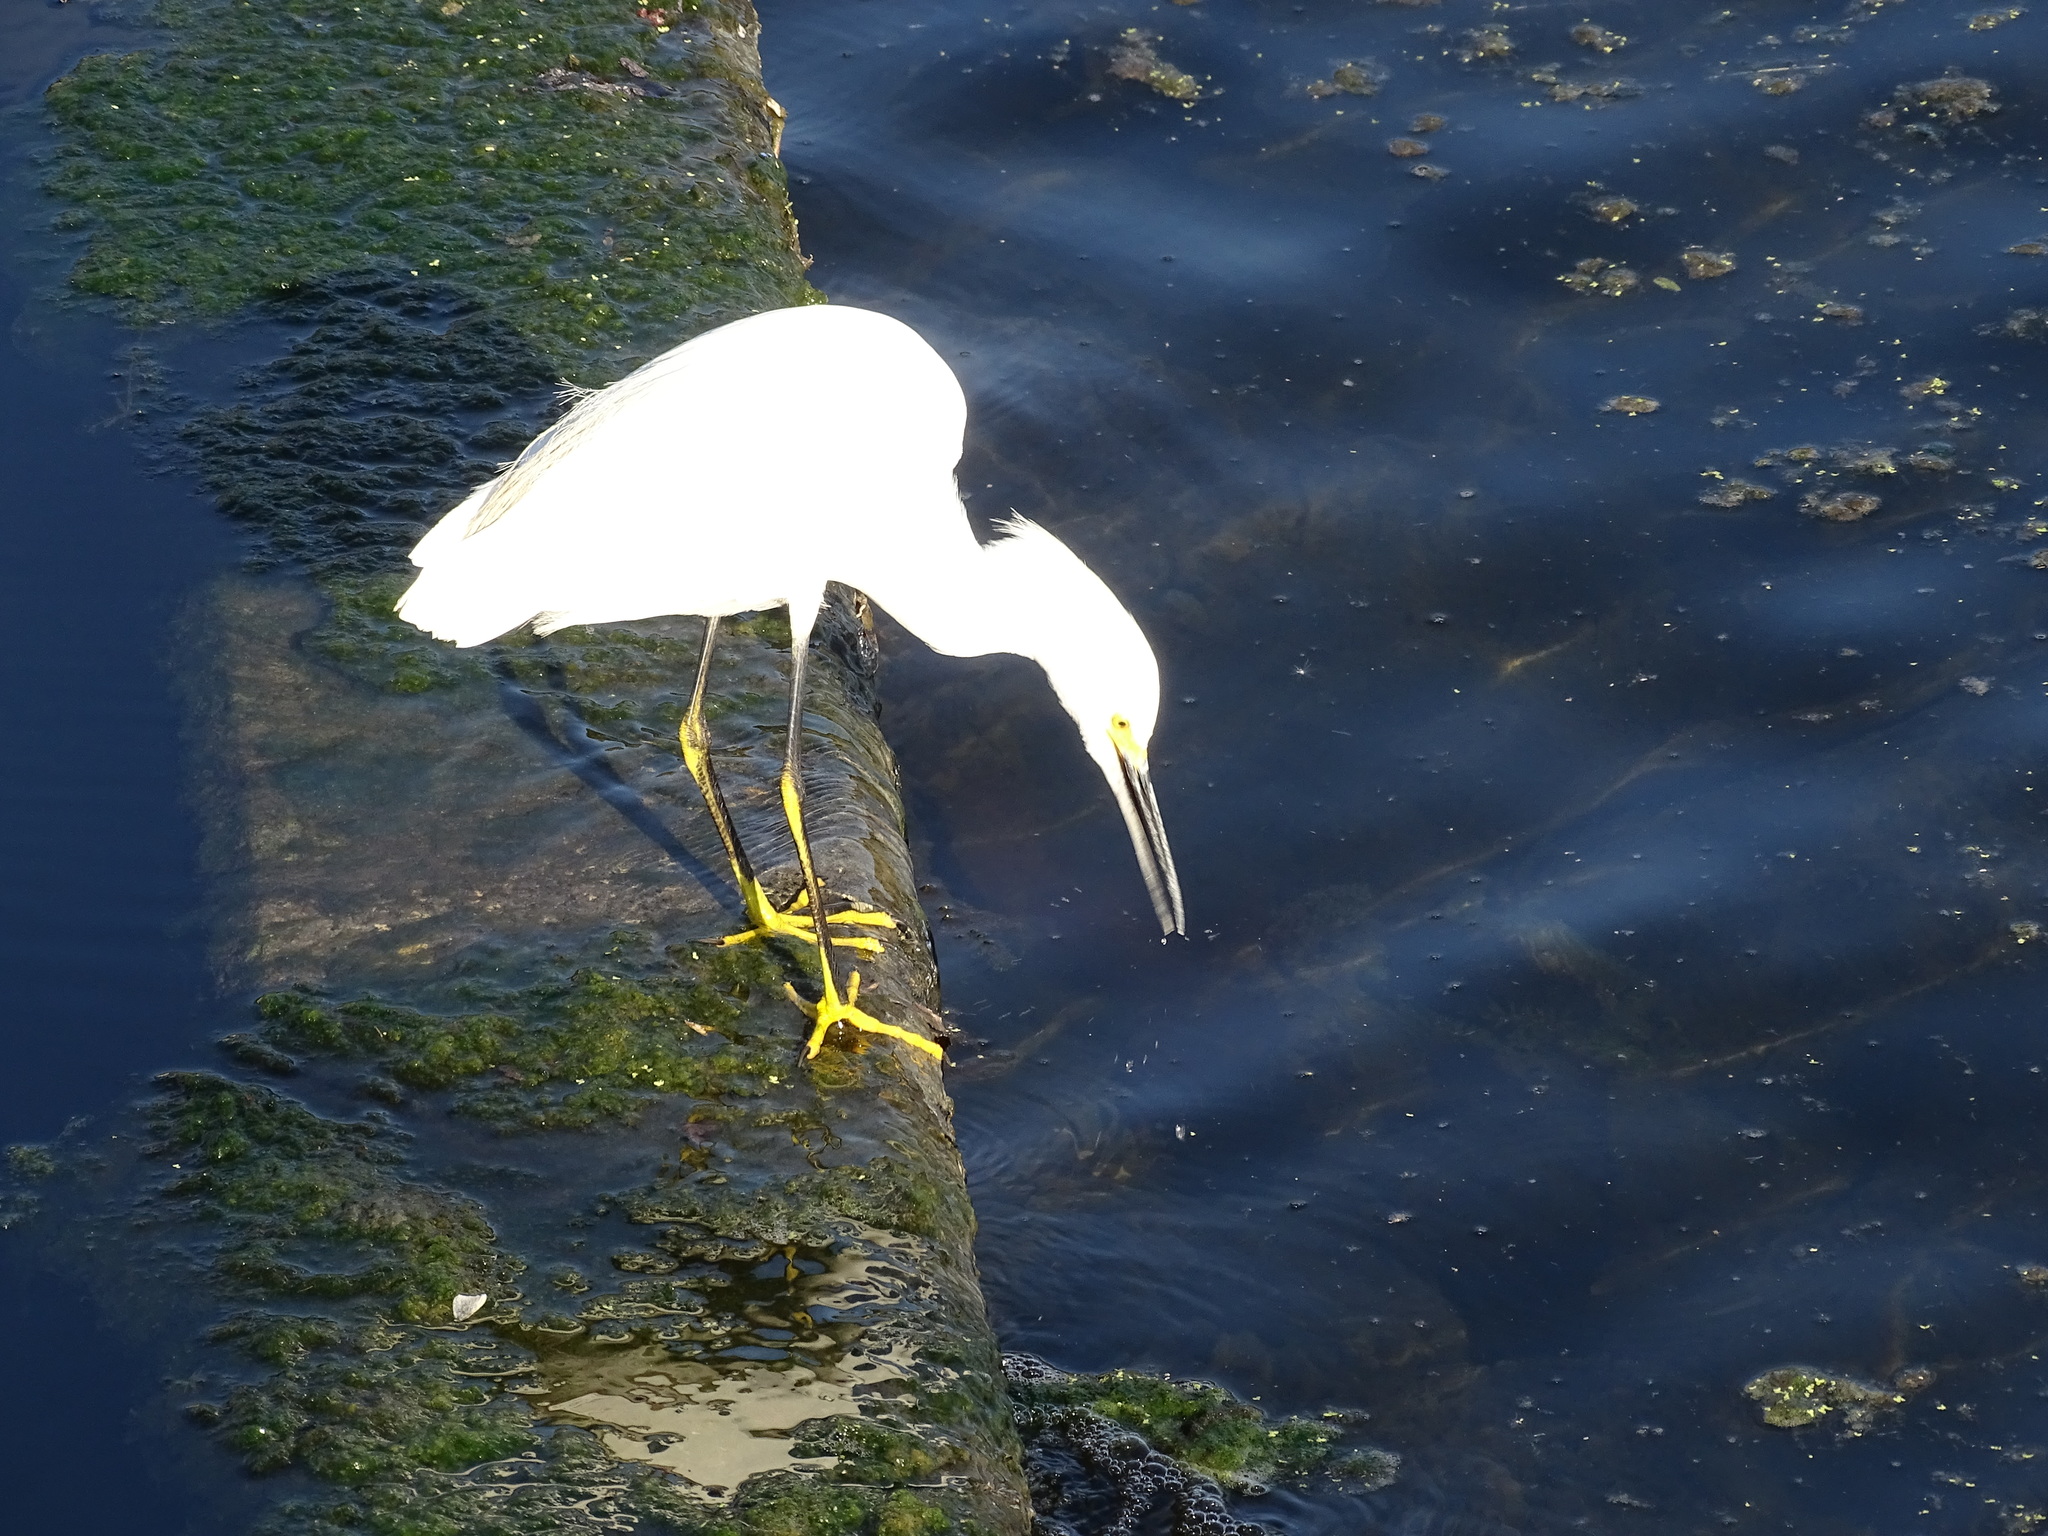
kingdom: Animalia
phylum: Chordata
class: Aves
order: Pelecaniformes
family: Ardeidae
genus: Egretta
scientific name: Egretta thula
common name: Snowy egret
